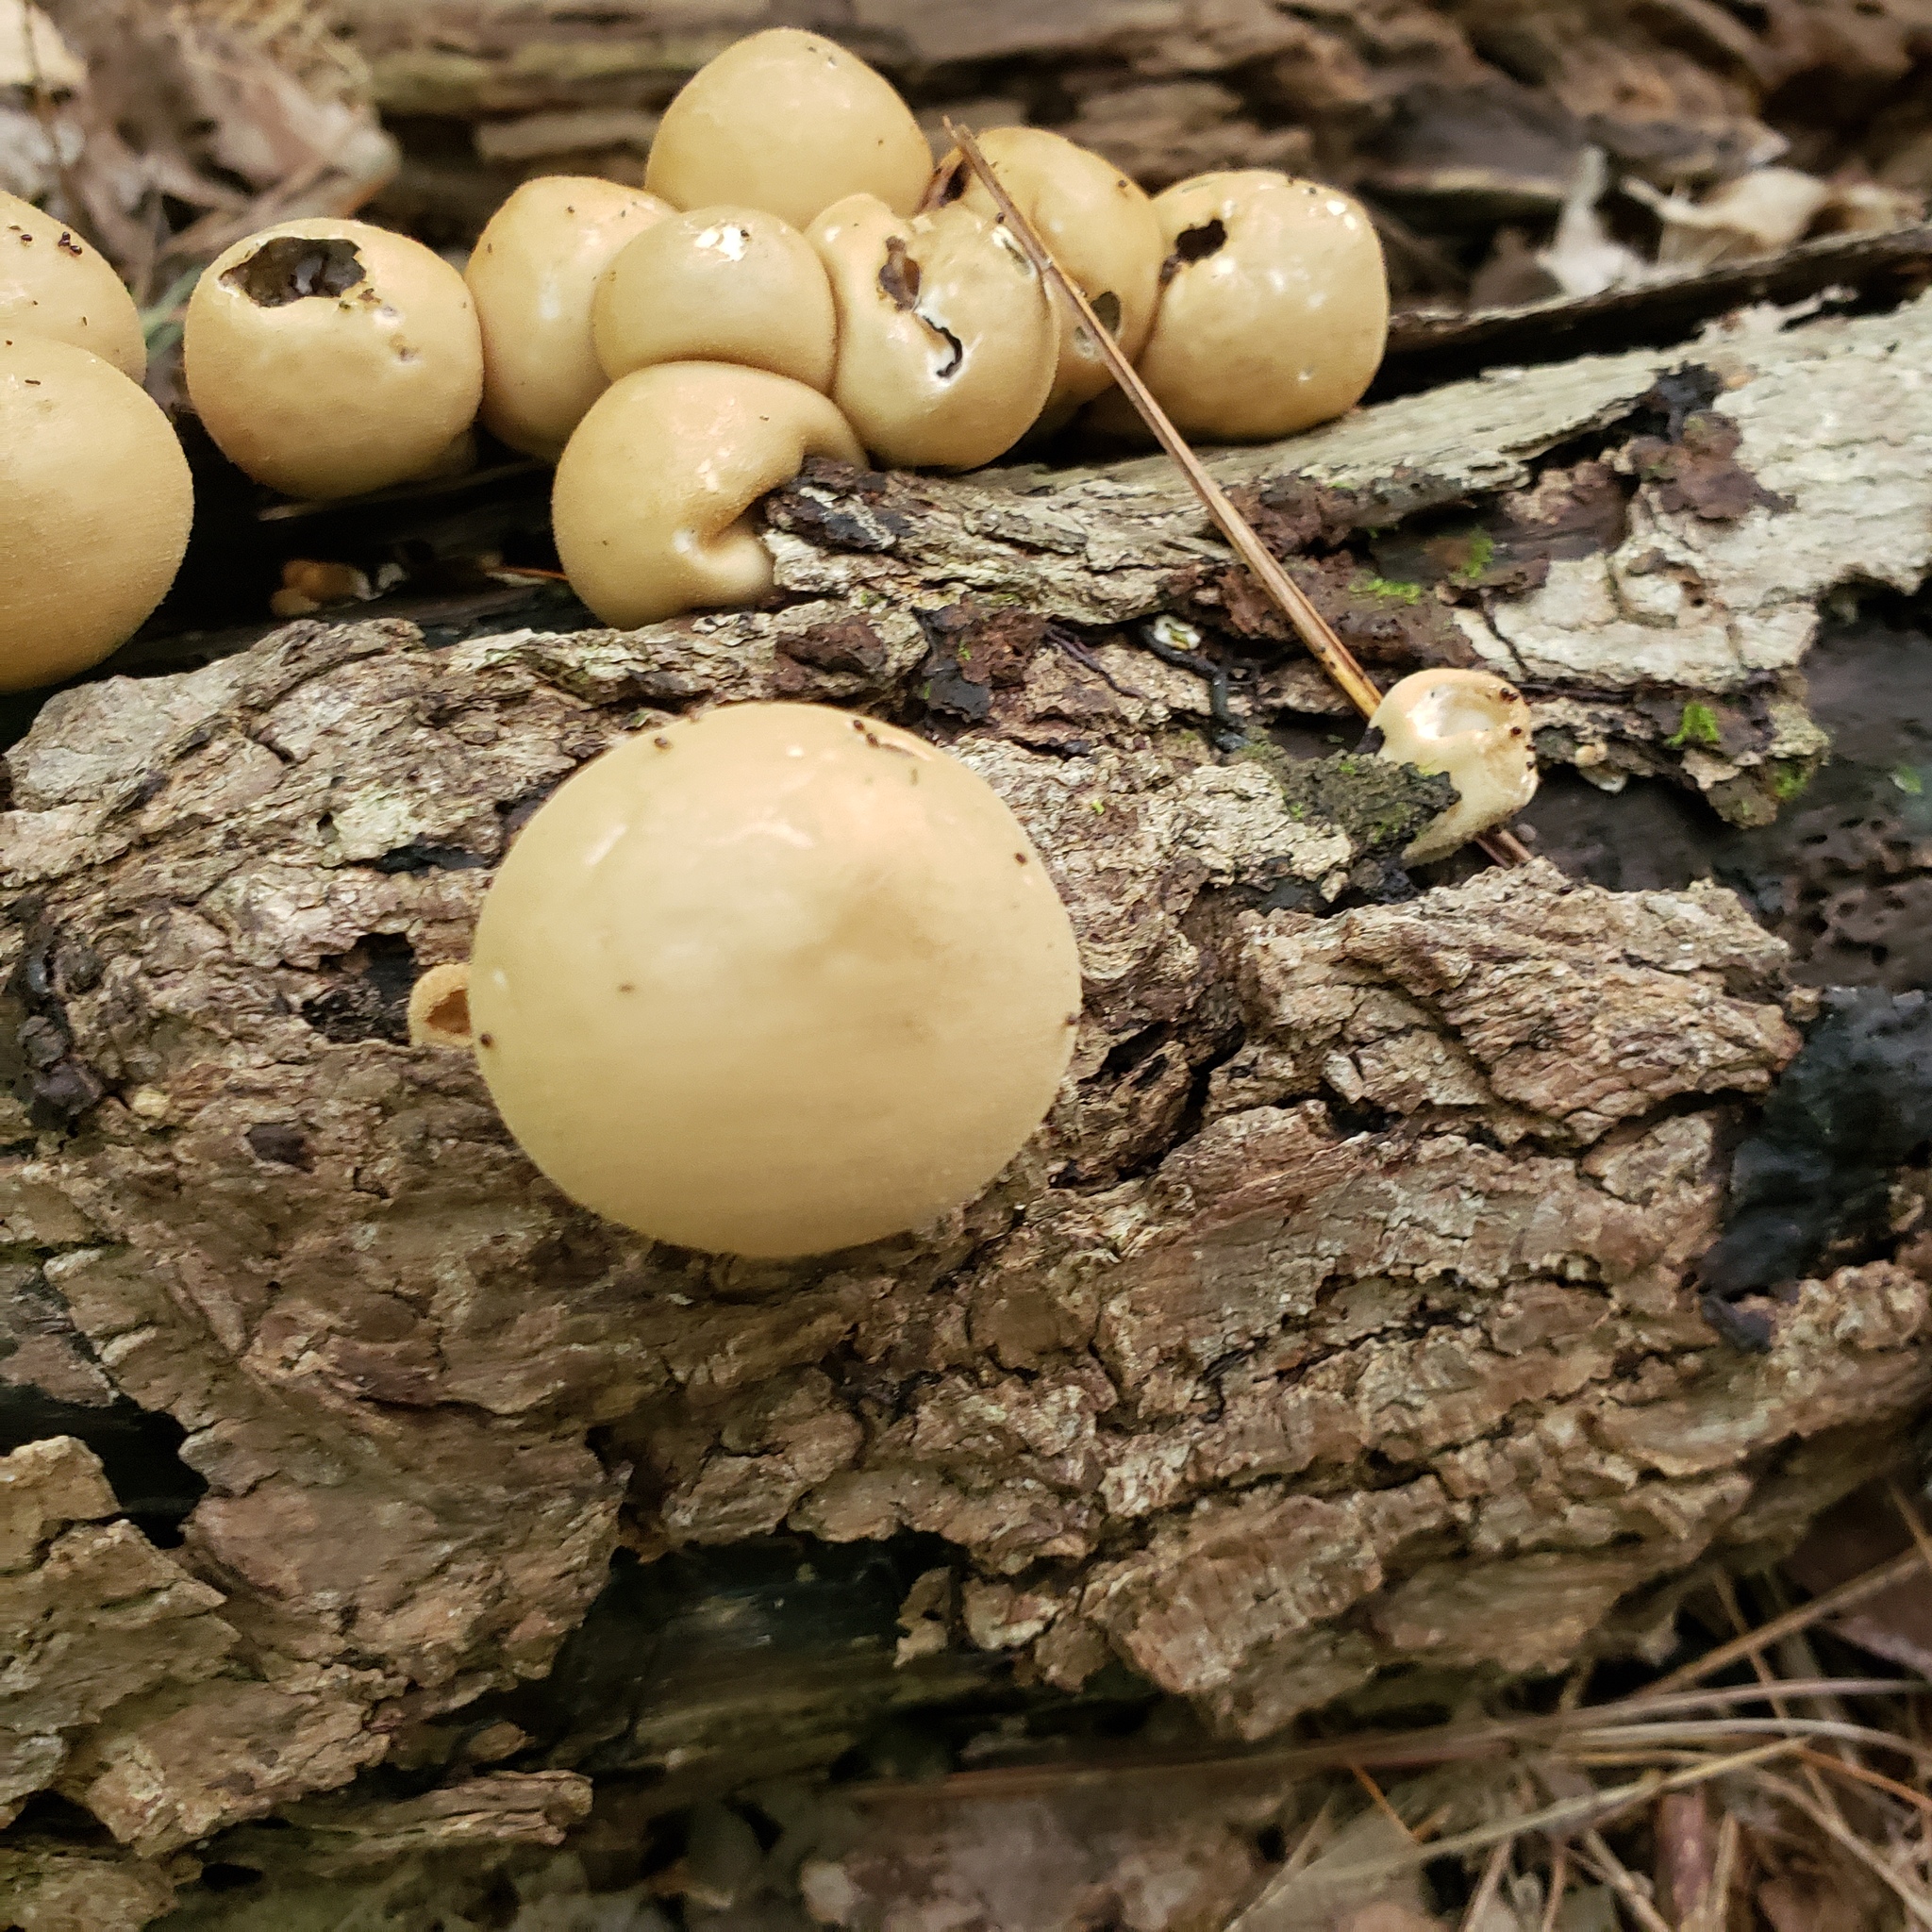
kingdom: Fungi
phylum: Basidiomycota
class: Agaricomycetes
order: Agaricales
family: Lycoperdaceae
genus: Apioperdon
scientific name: Apioperdon pyriforme
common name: Pear-shaped puffball
